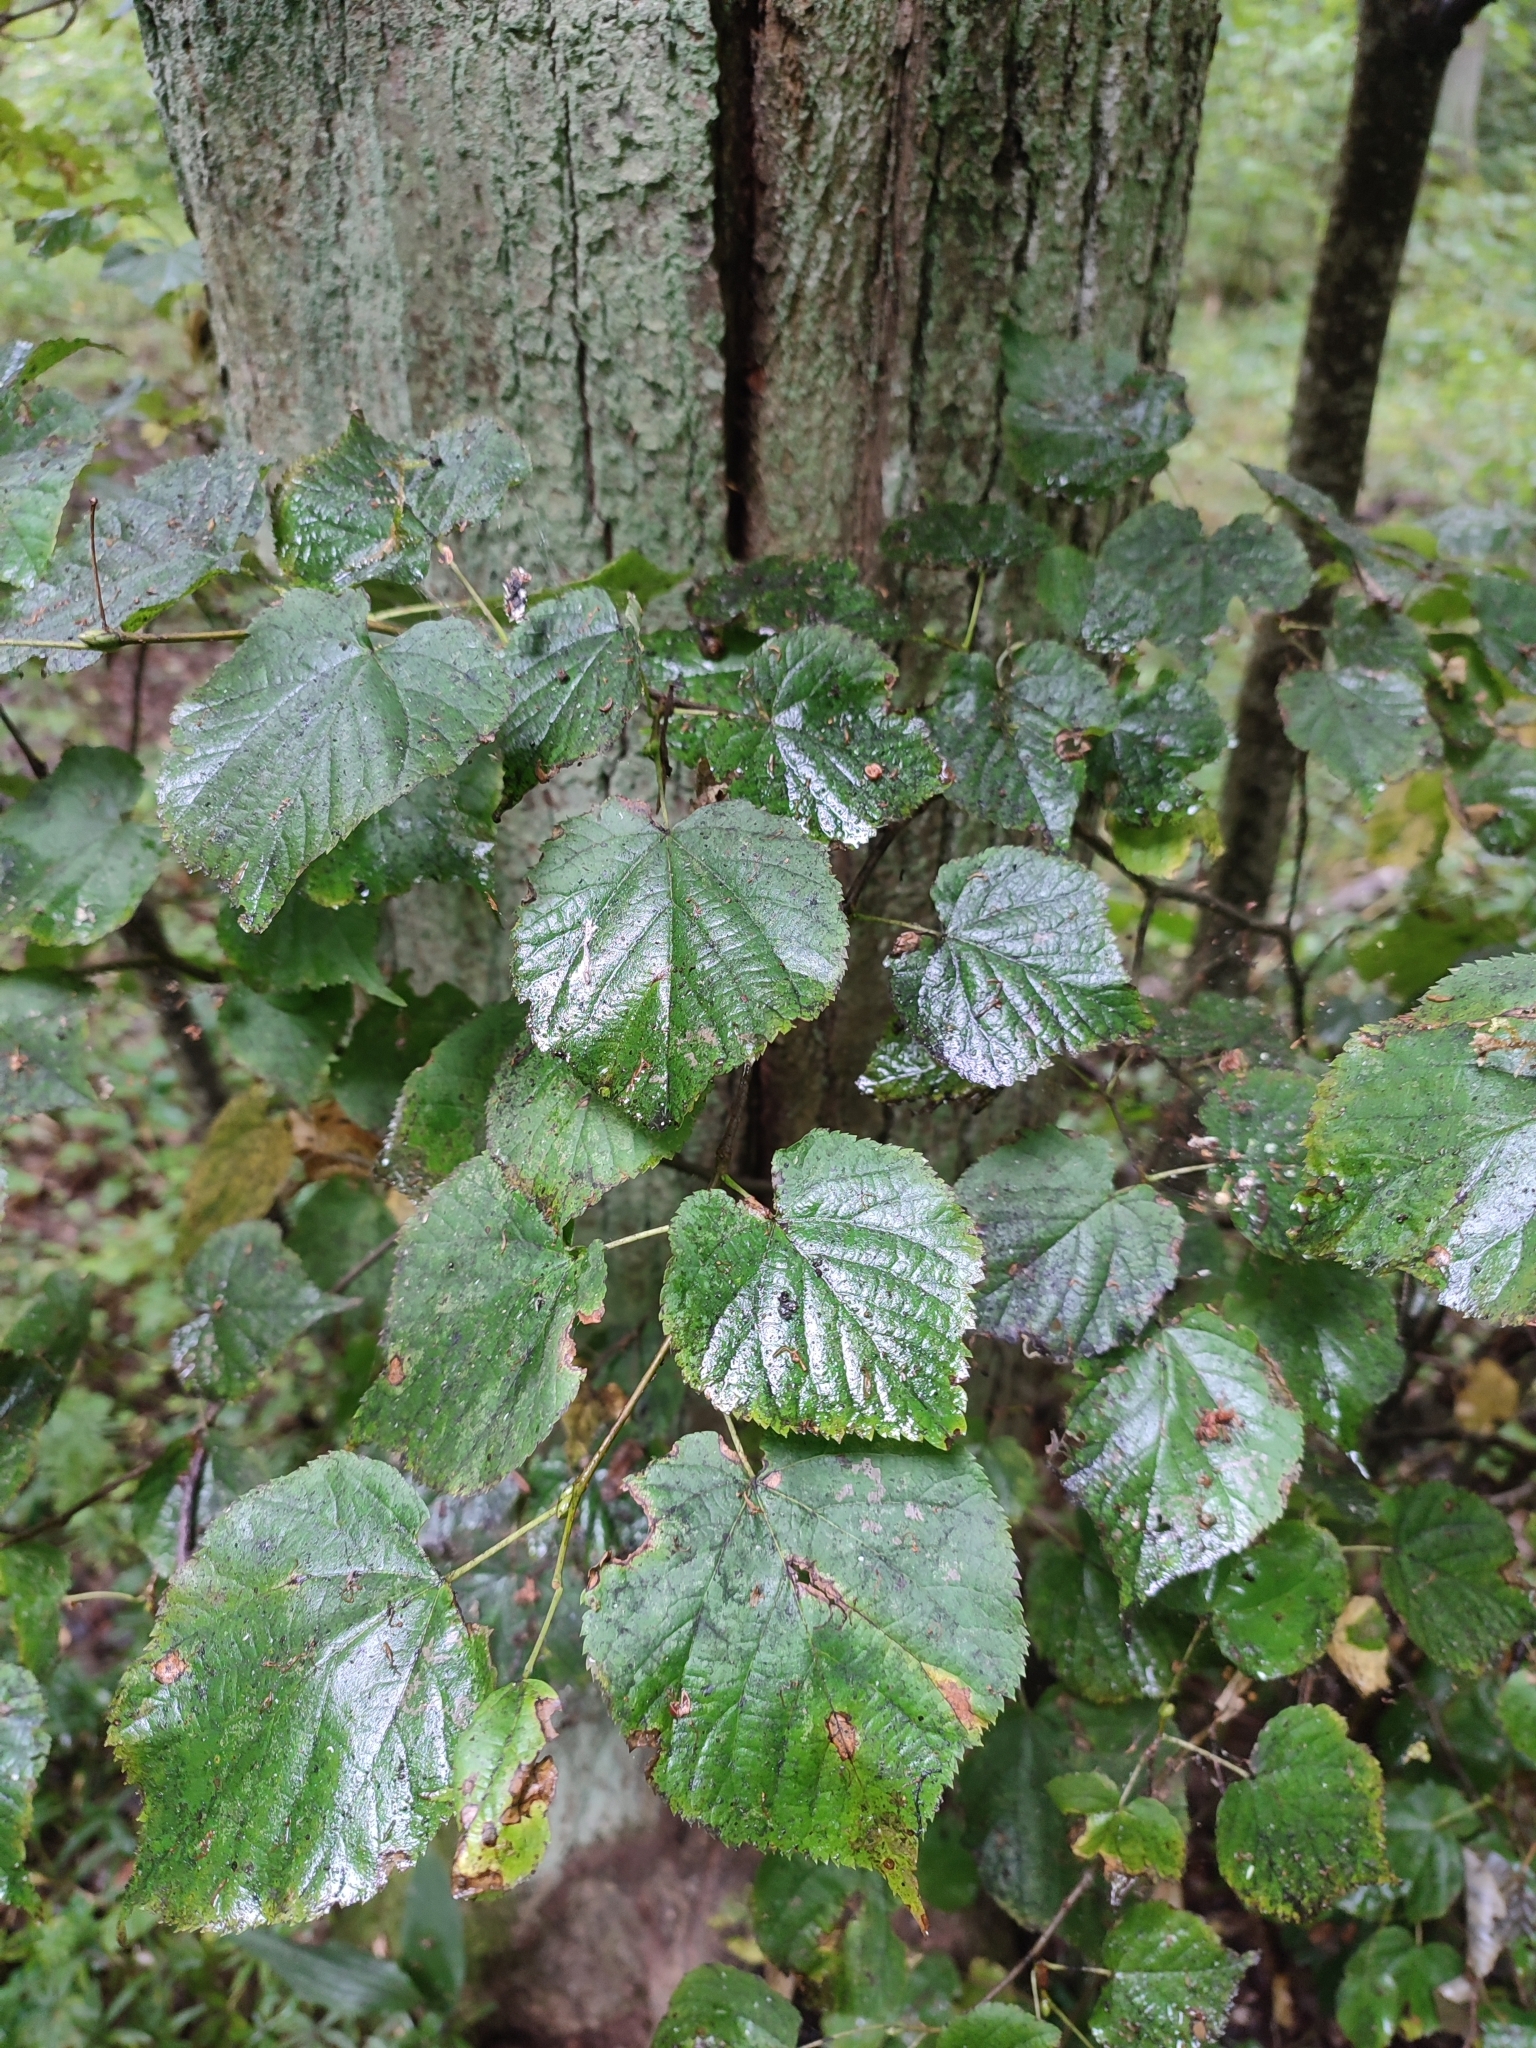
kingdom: Plantae
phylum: Tracheophyta
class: Magnoliopsida
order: Malvales
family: Malvaceae
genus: Tilia
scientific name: Tilia cordata
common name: Small-leaved lime
